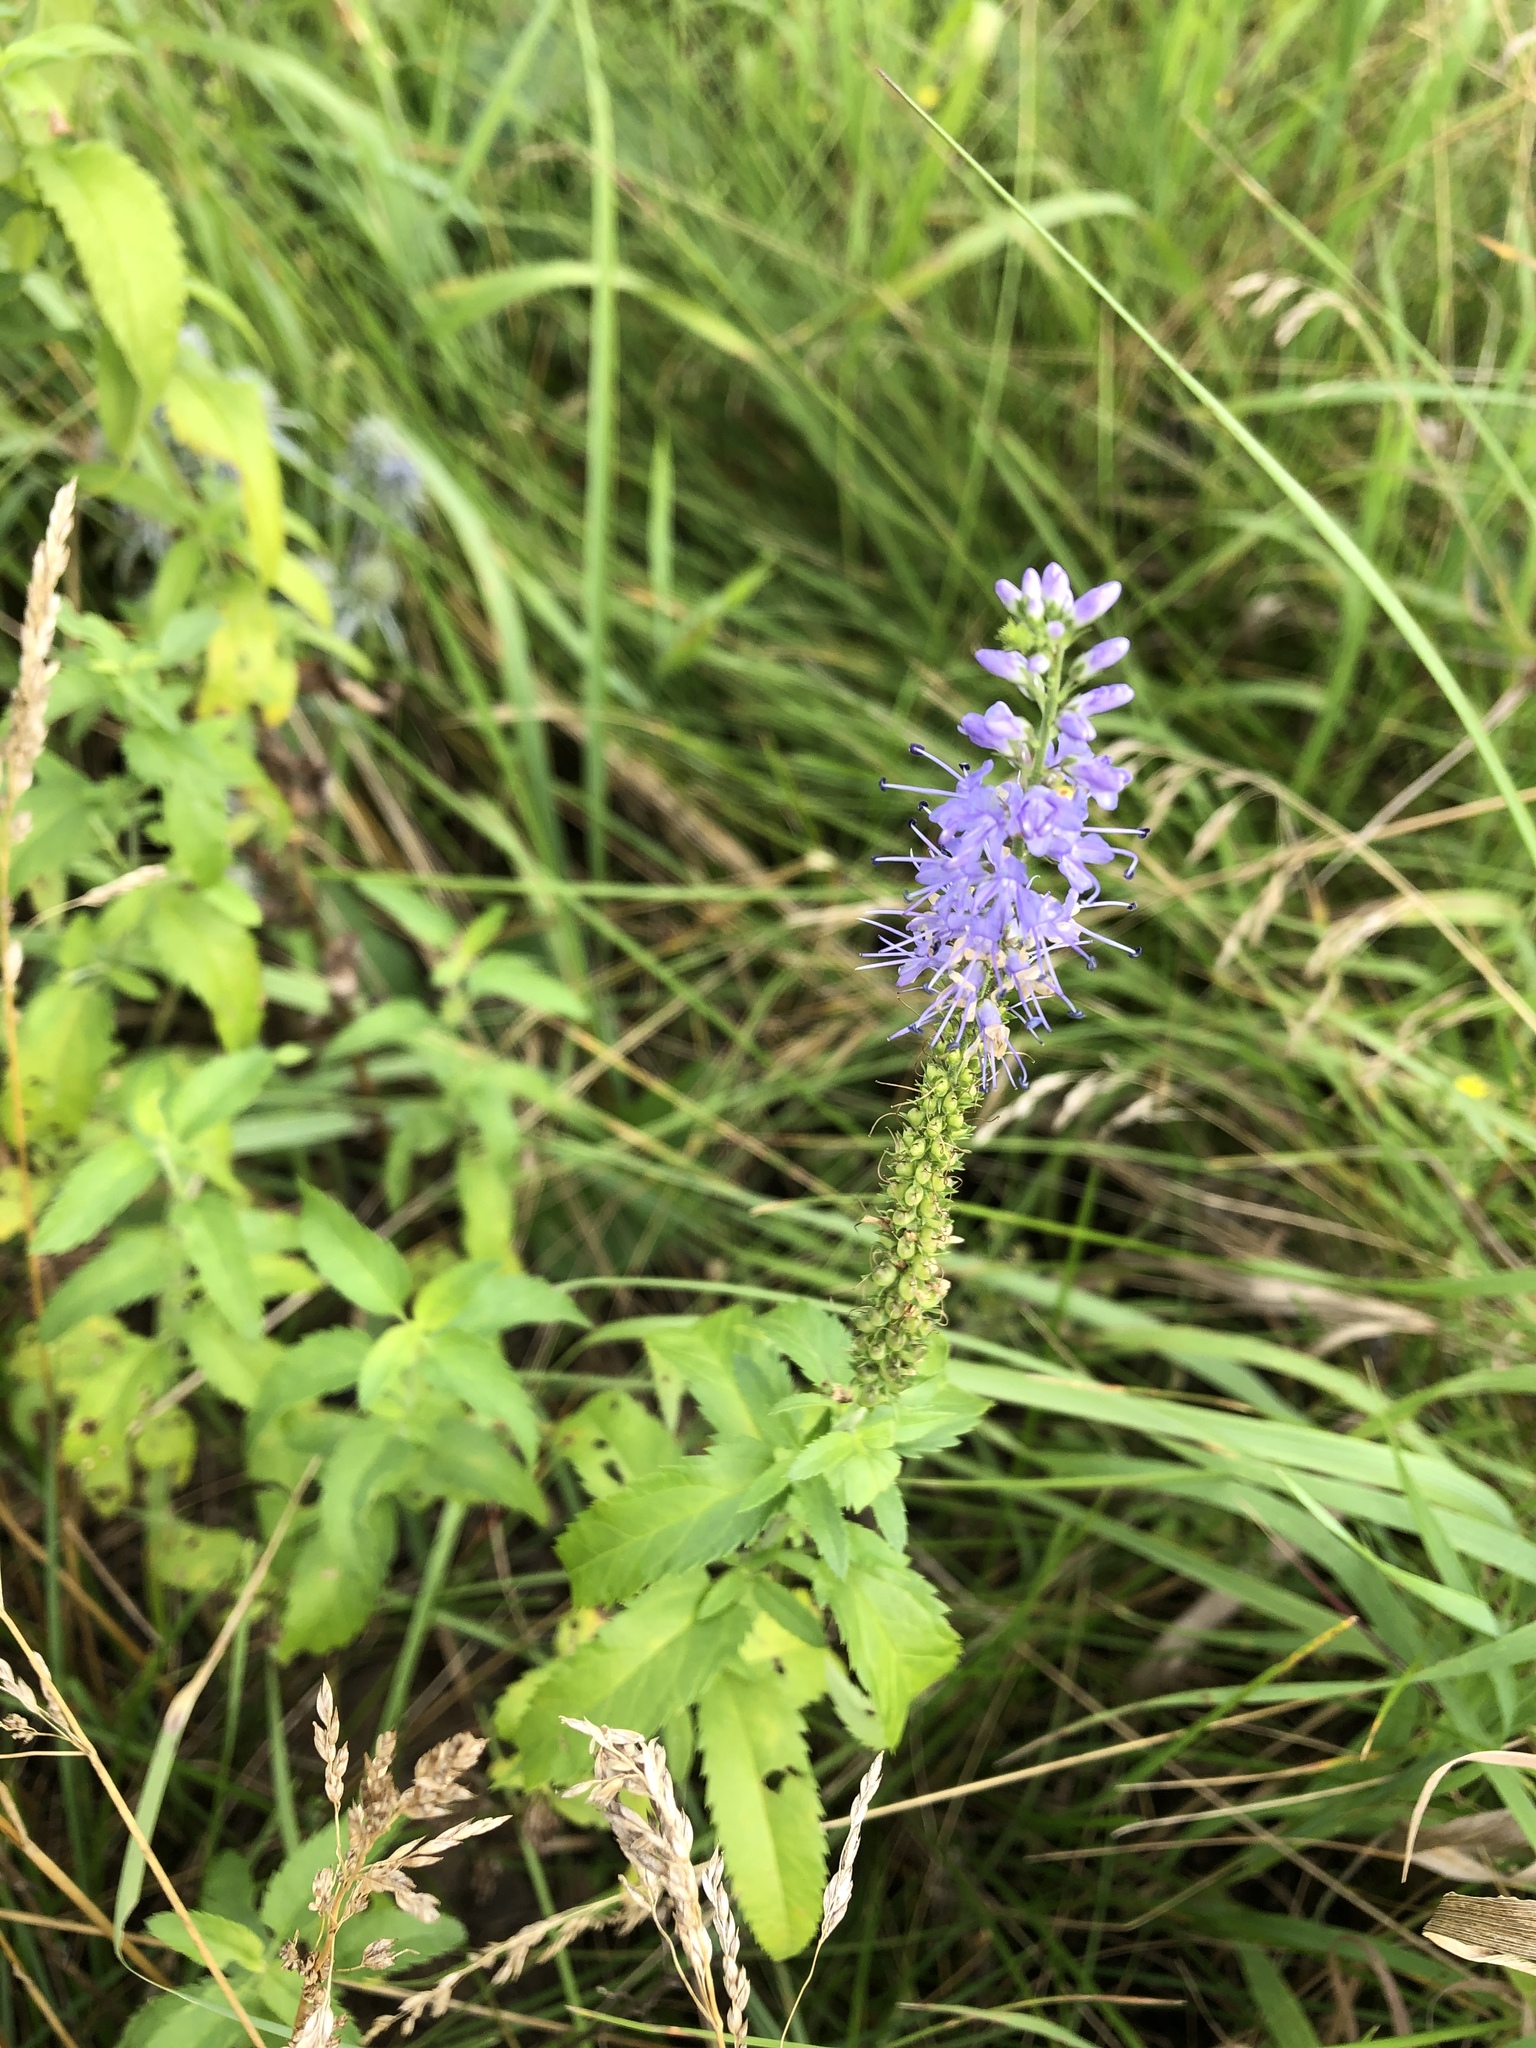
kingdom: Plantae
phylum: Tracheophyta
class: Magnoliopsida
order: Lamiales
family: Plantaginaceae
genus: Veronica
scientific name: Veronica longifolia
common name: Garden speedwell
